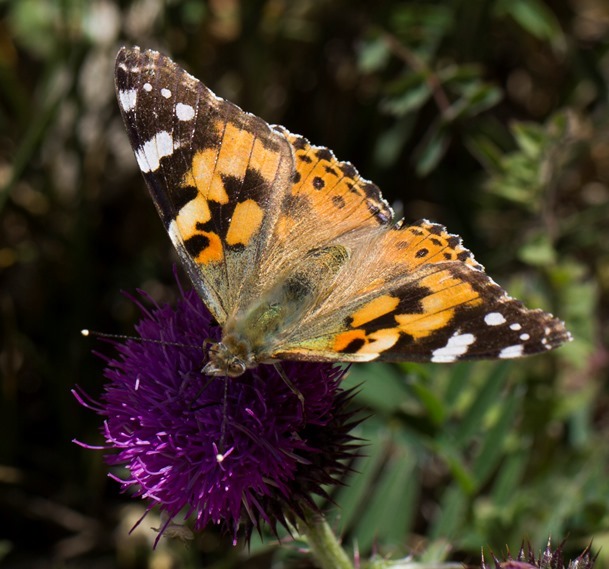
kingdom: Animalia
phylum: Arthropoda
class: Insecta
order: Lepidoptera
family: Nymphalidae
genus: Vanessa
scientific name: Vanessa cardui
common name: Painted lady
